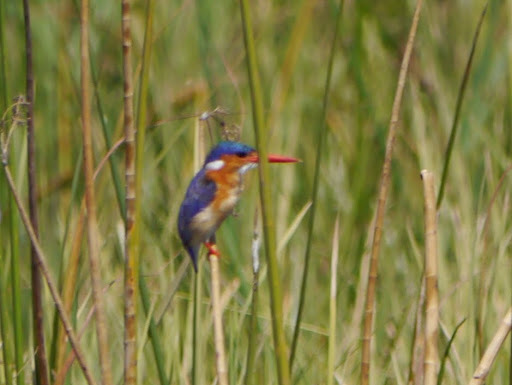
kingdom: Animalia
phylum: Chordata
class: Aves
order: Coraciiformes
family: Alcedinidae
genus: Corythornis
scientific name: Corythornis cristatus
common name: Malachite kingfisher
